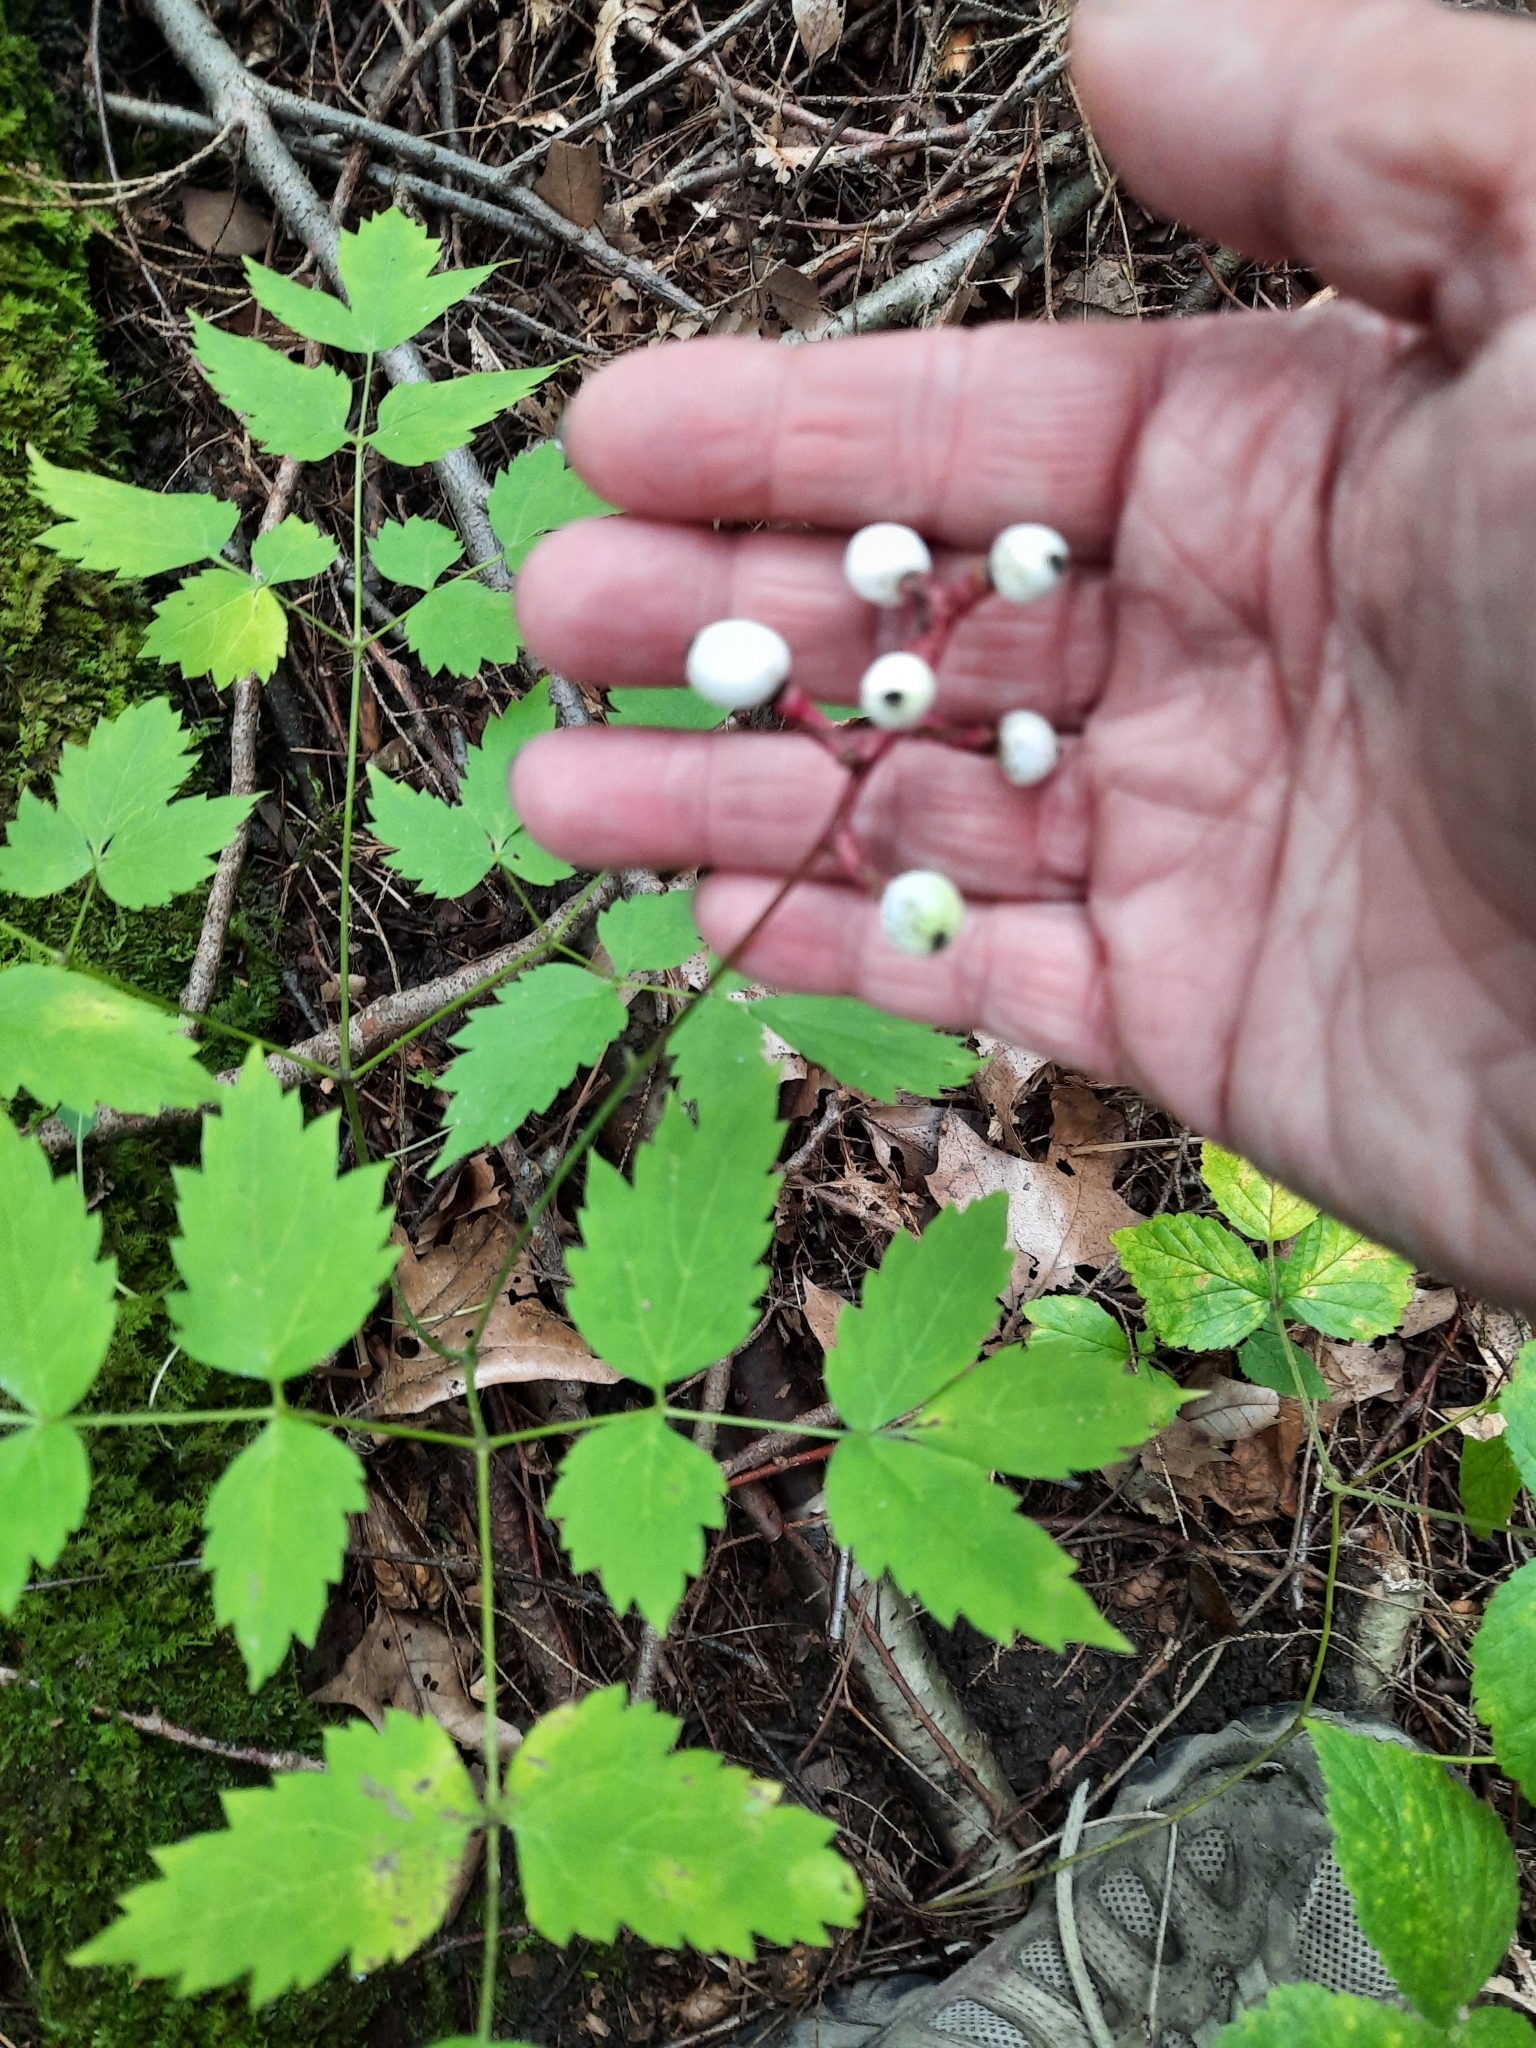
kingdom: Plantae
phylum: Tracheophyta
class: Magnoliopsida
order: Ranunculales
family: Ranunculaceae
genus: Actaea
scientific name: Actaea pachypoda
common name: Doll's-eyes
